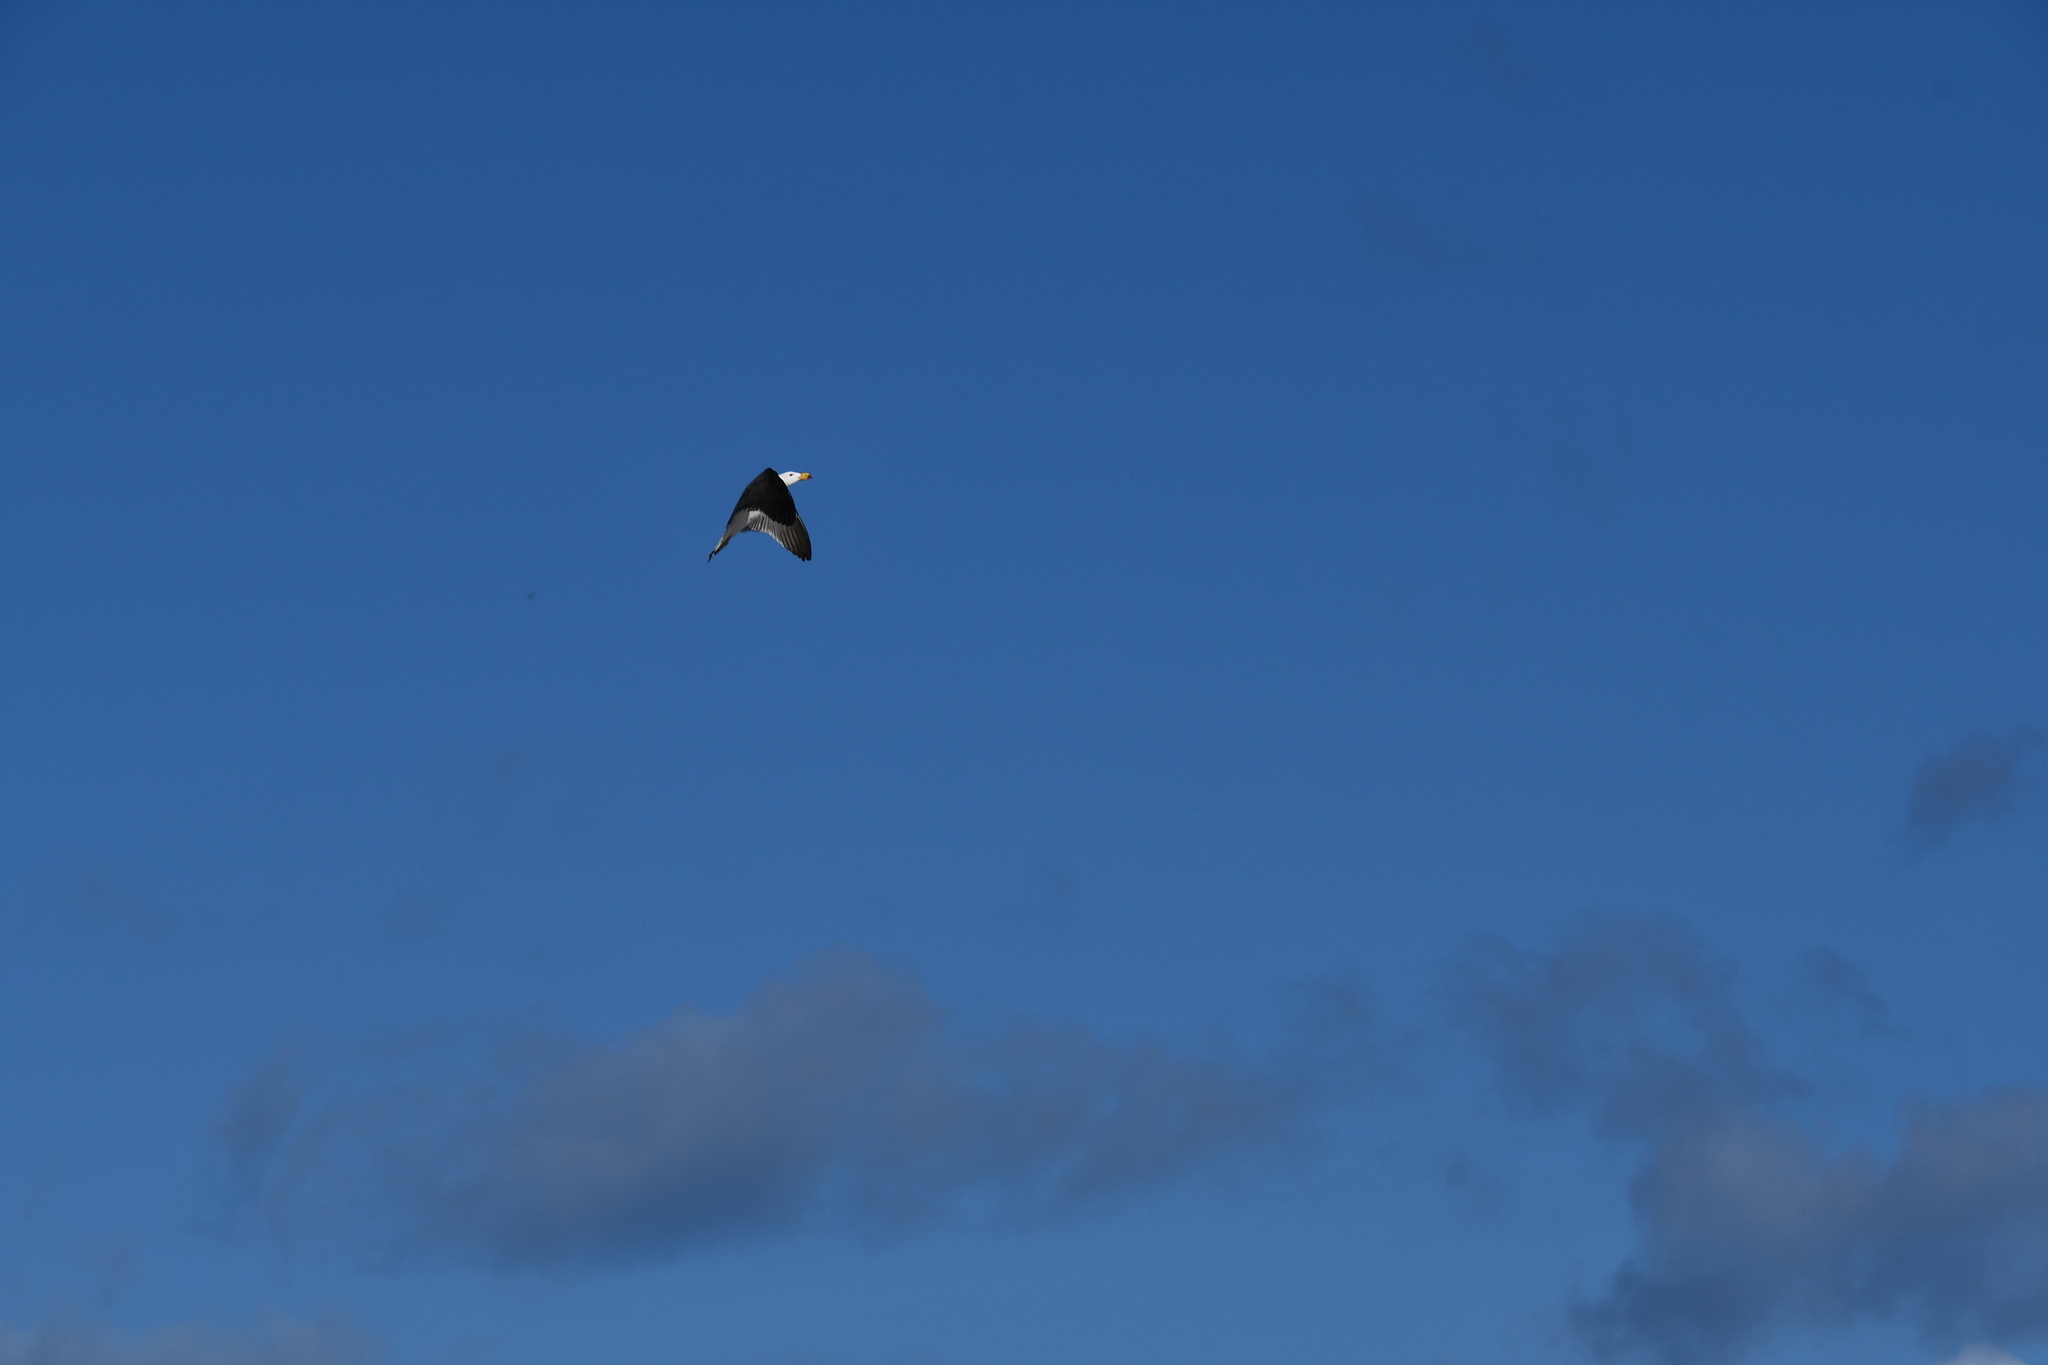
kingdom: Animalia
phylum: Chordata
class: Aves
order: Charadriiformes
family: Laridae
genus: Larus
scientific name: Larus pacificus
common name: Pacific gull
